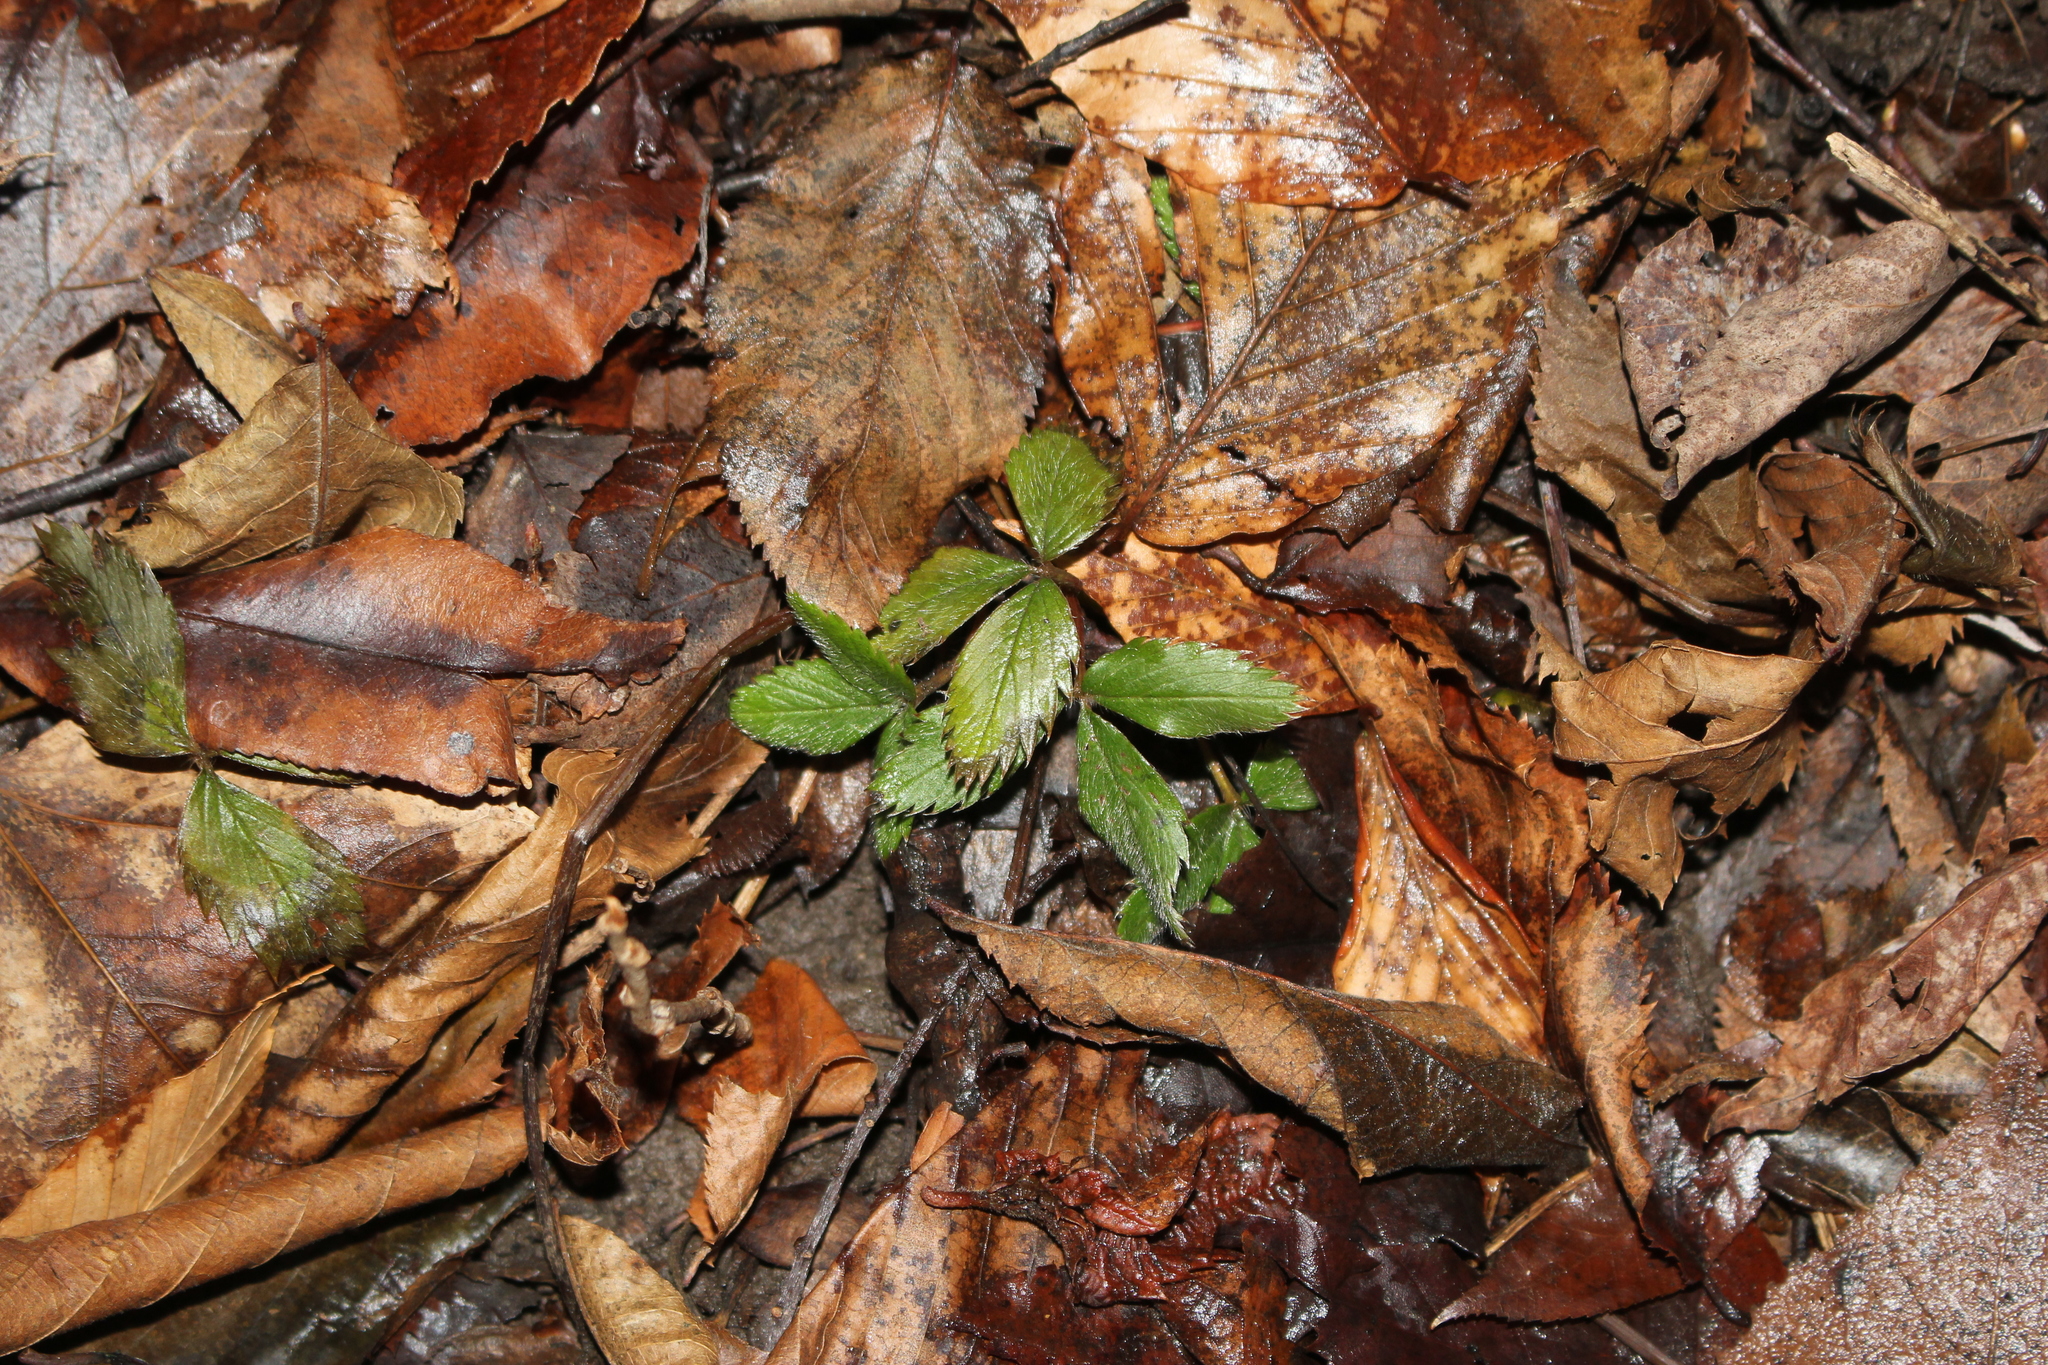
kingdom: Plantae
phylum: Tracheophyta
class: Magnoliopsida
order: Rosales
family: Rosaceae
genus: Fragaria
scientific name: Fragaria virginiana
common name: Thickleaved wild strawberry
